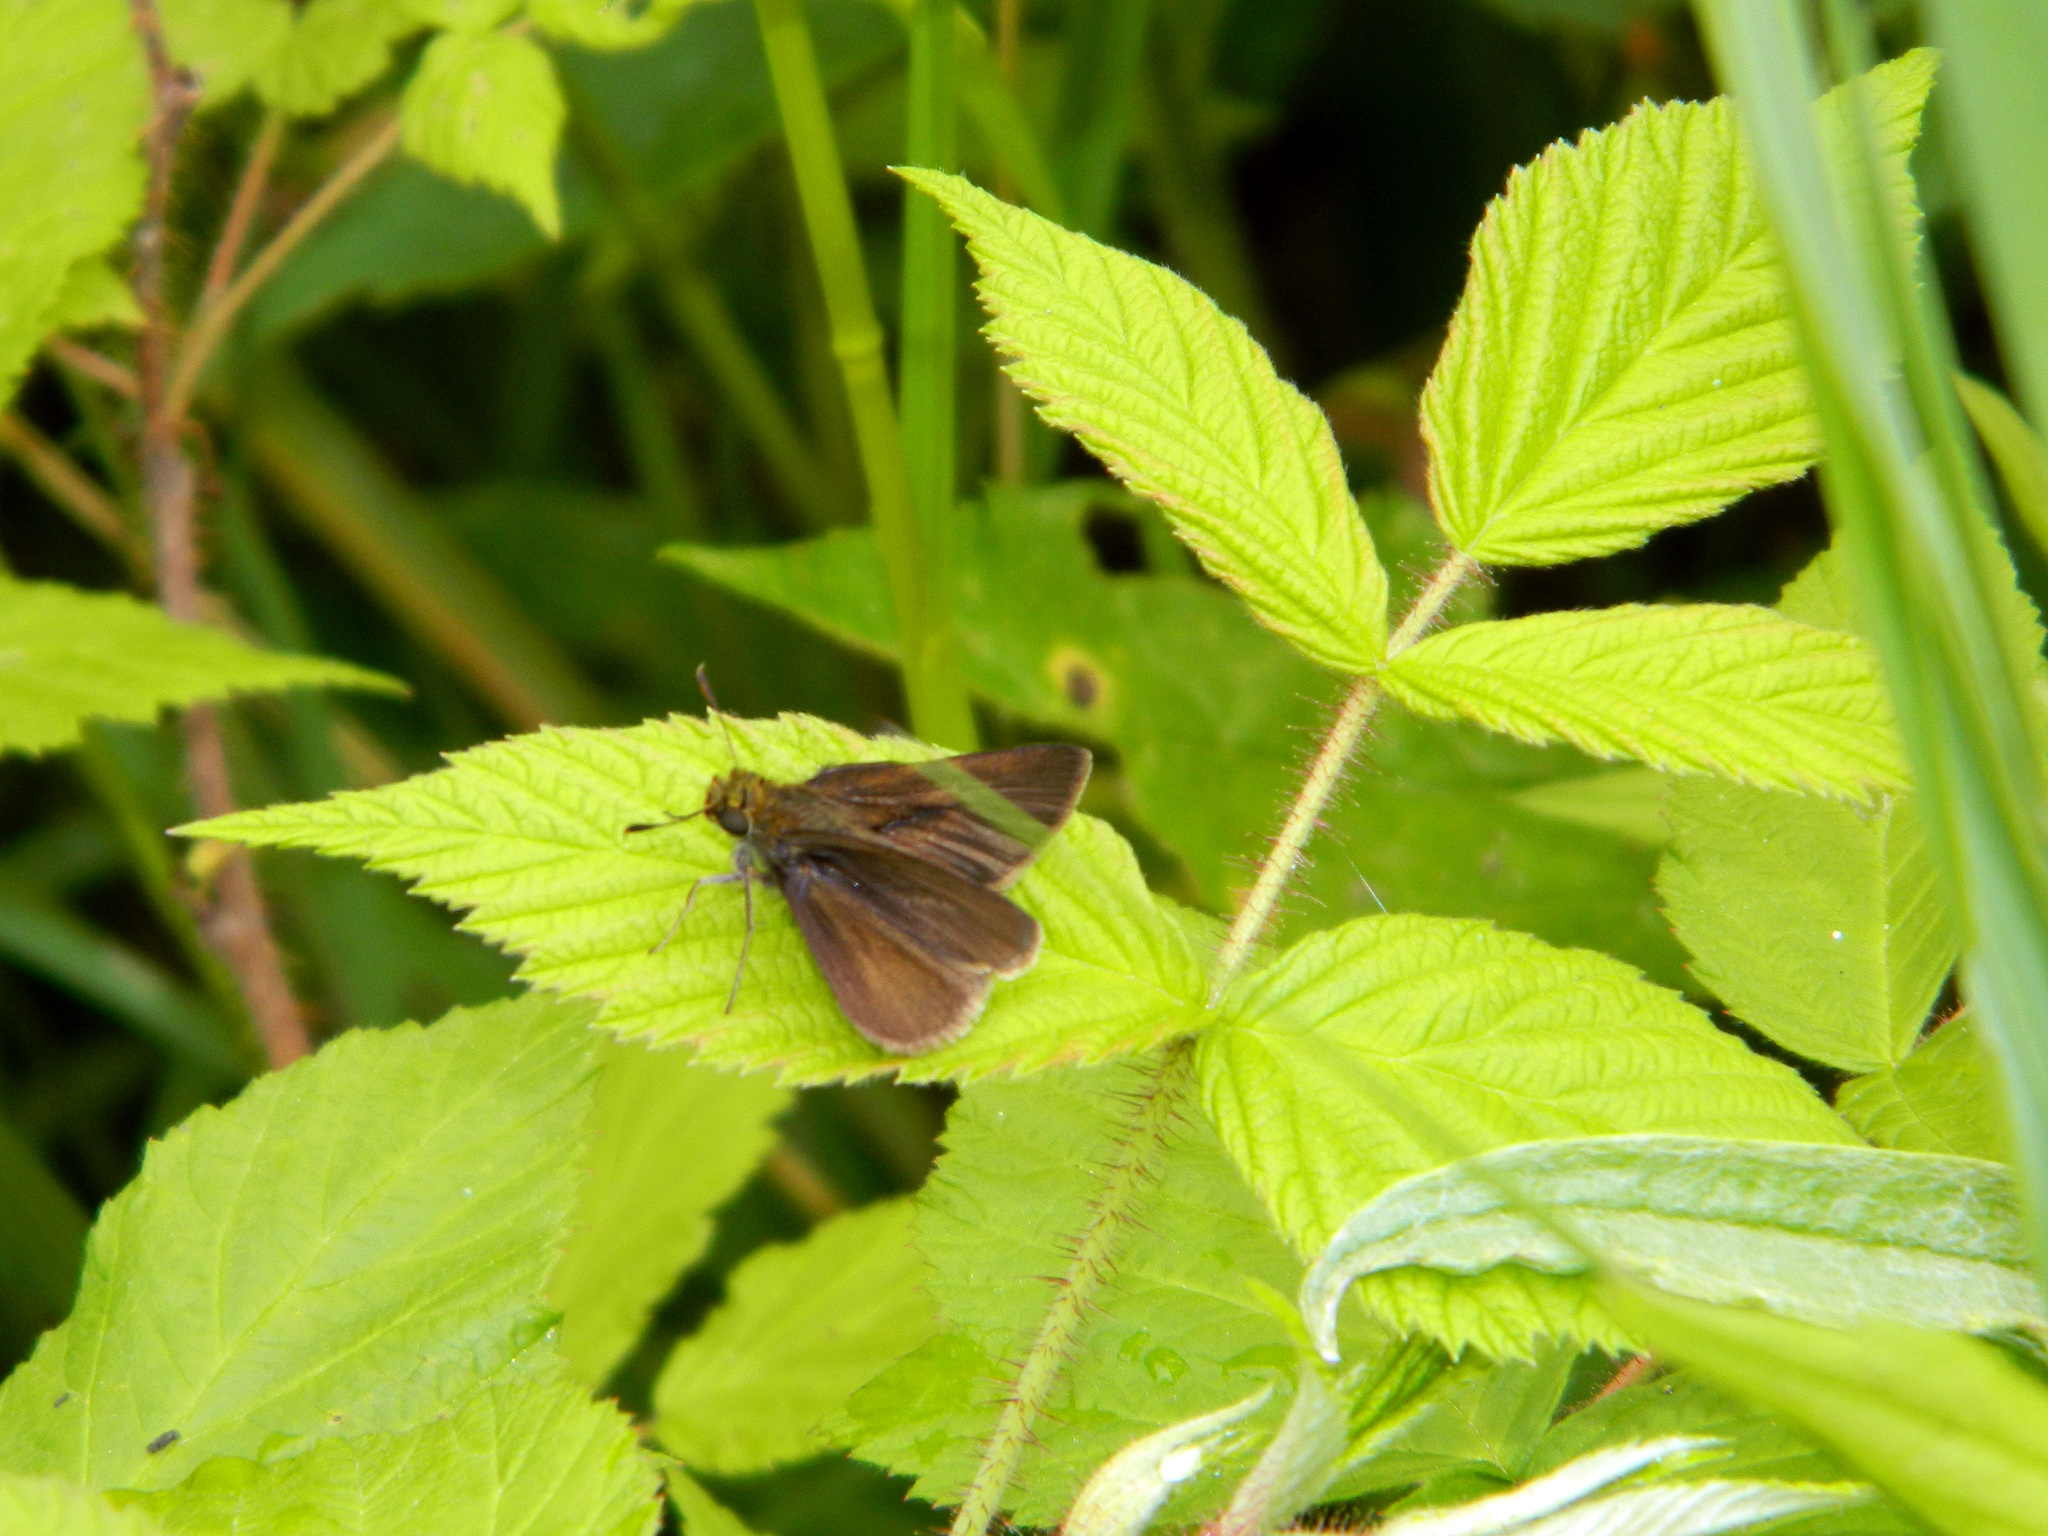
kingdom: Animalia
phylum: Arthropoda
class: Insecta
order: Lepidoptera
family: Hesperiidae
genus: Euphyes
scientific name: Euphyes vestris
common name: Dun skipper
